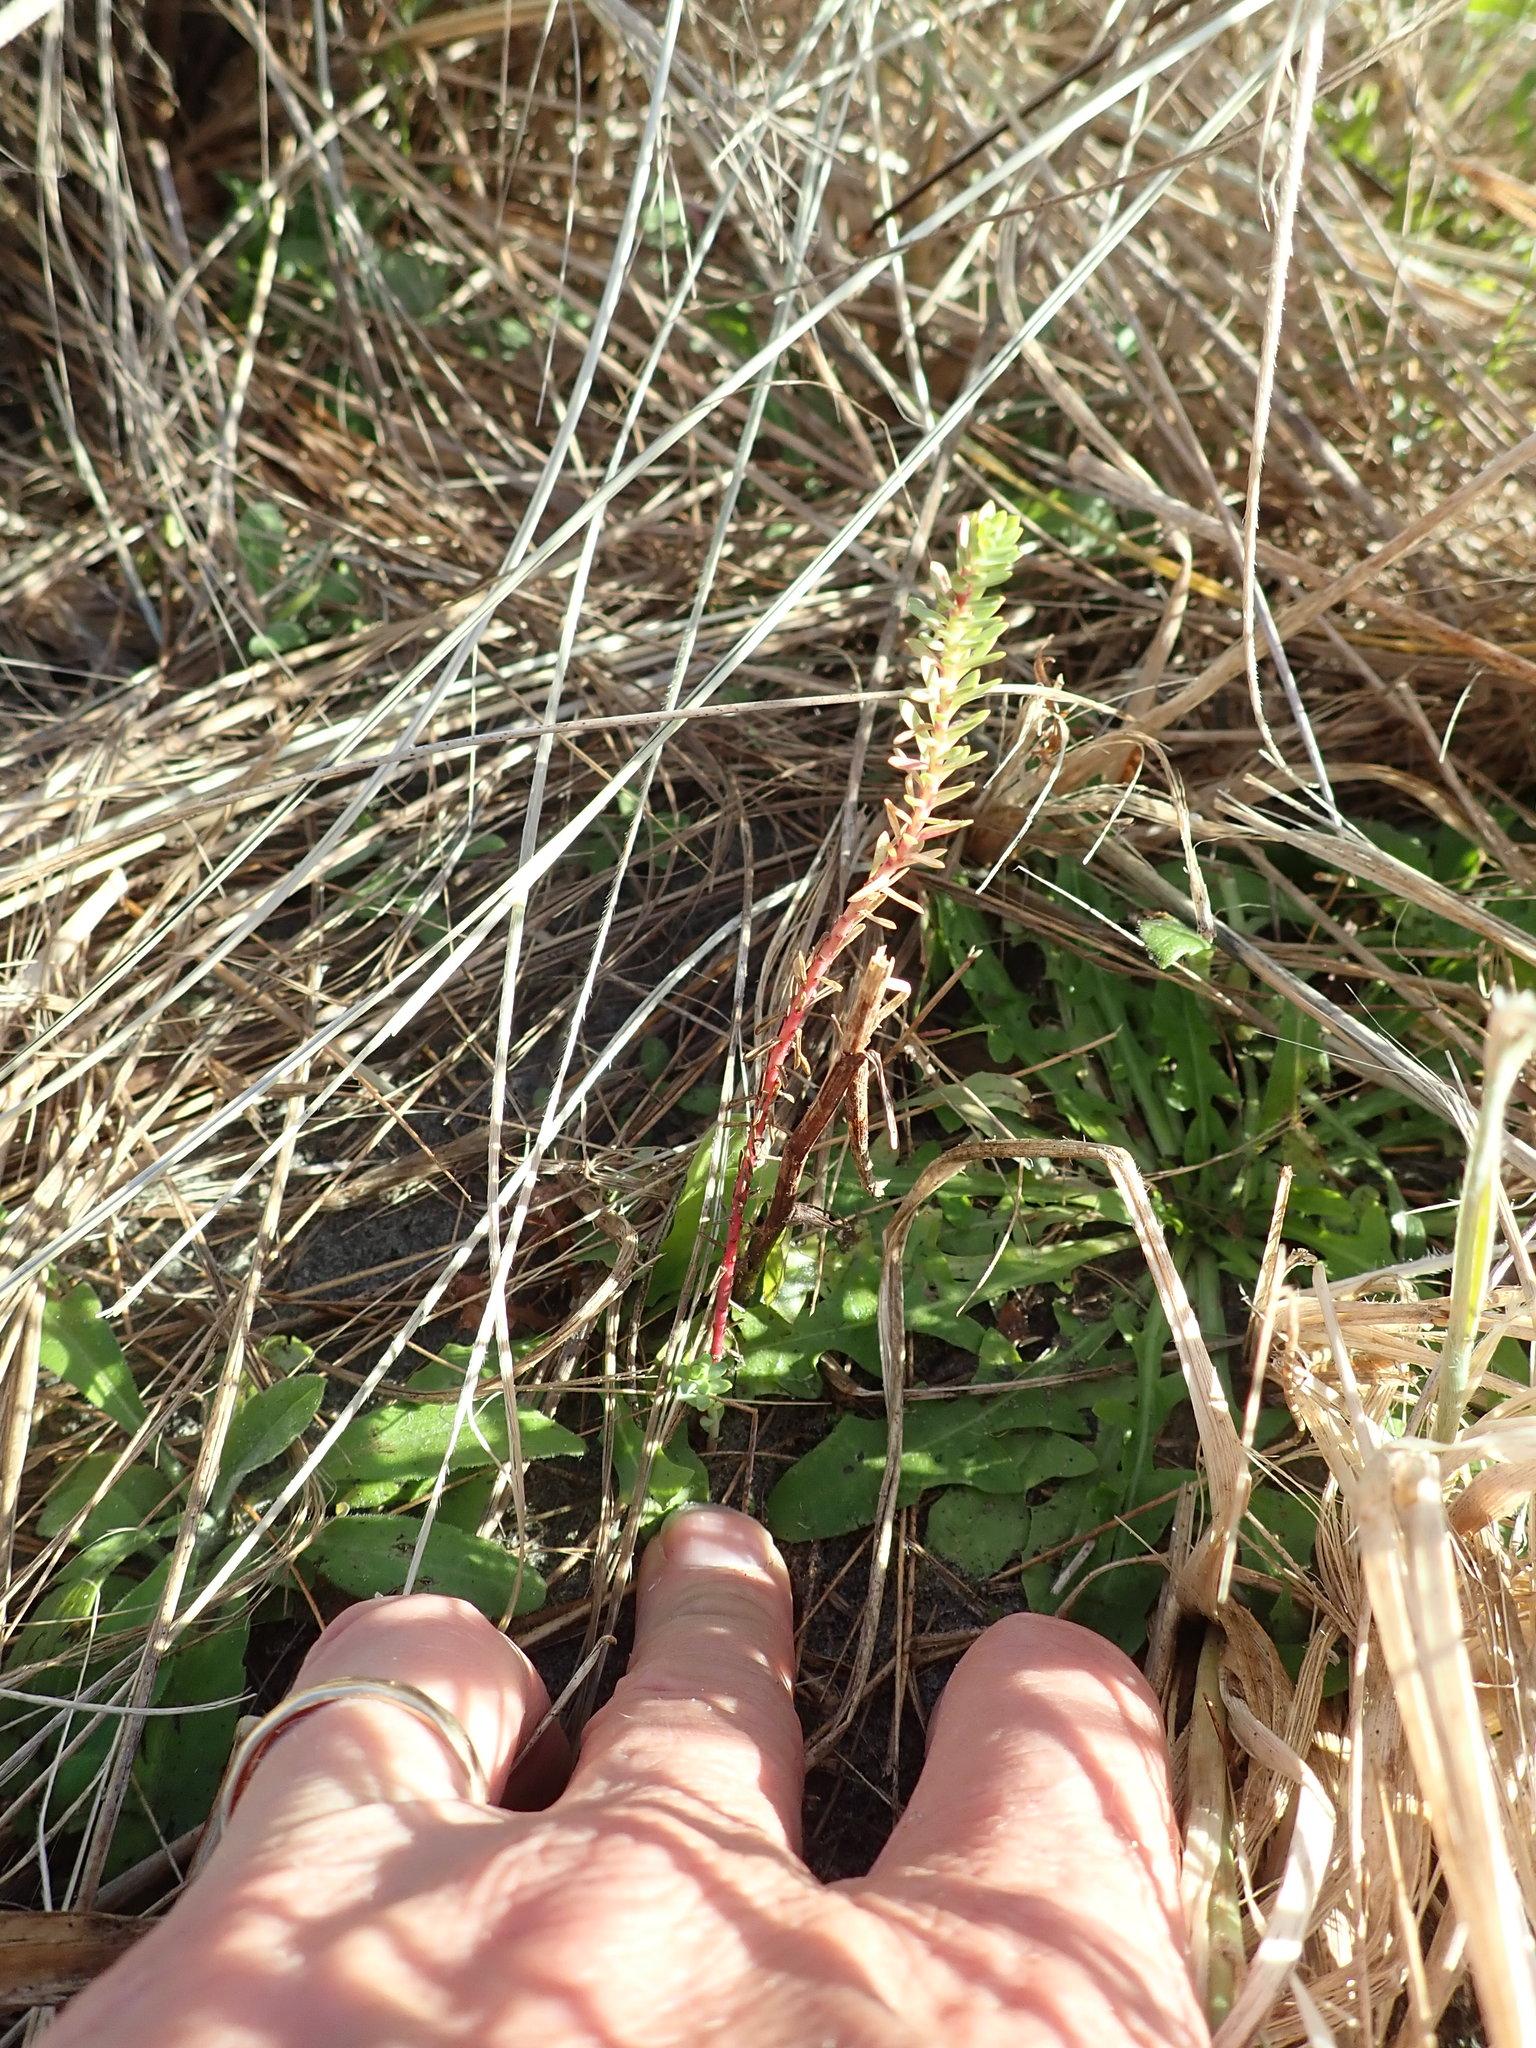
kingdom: Plantae
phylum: Tracheophyta
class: Magnoliopsida
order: Malpighiales
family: Euphorbiaceae
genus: Euphorbia
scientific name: Euphorbia paralias
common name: Sea spurge
